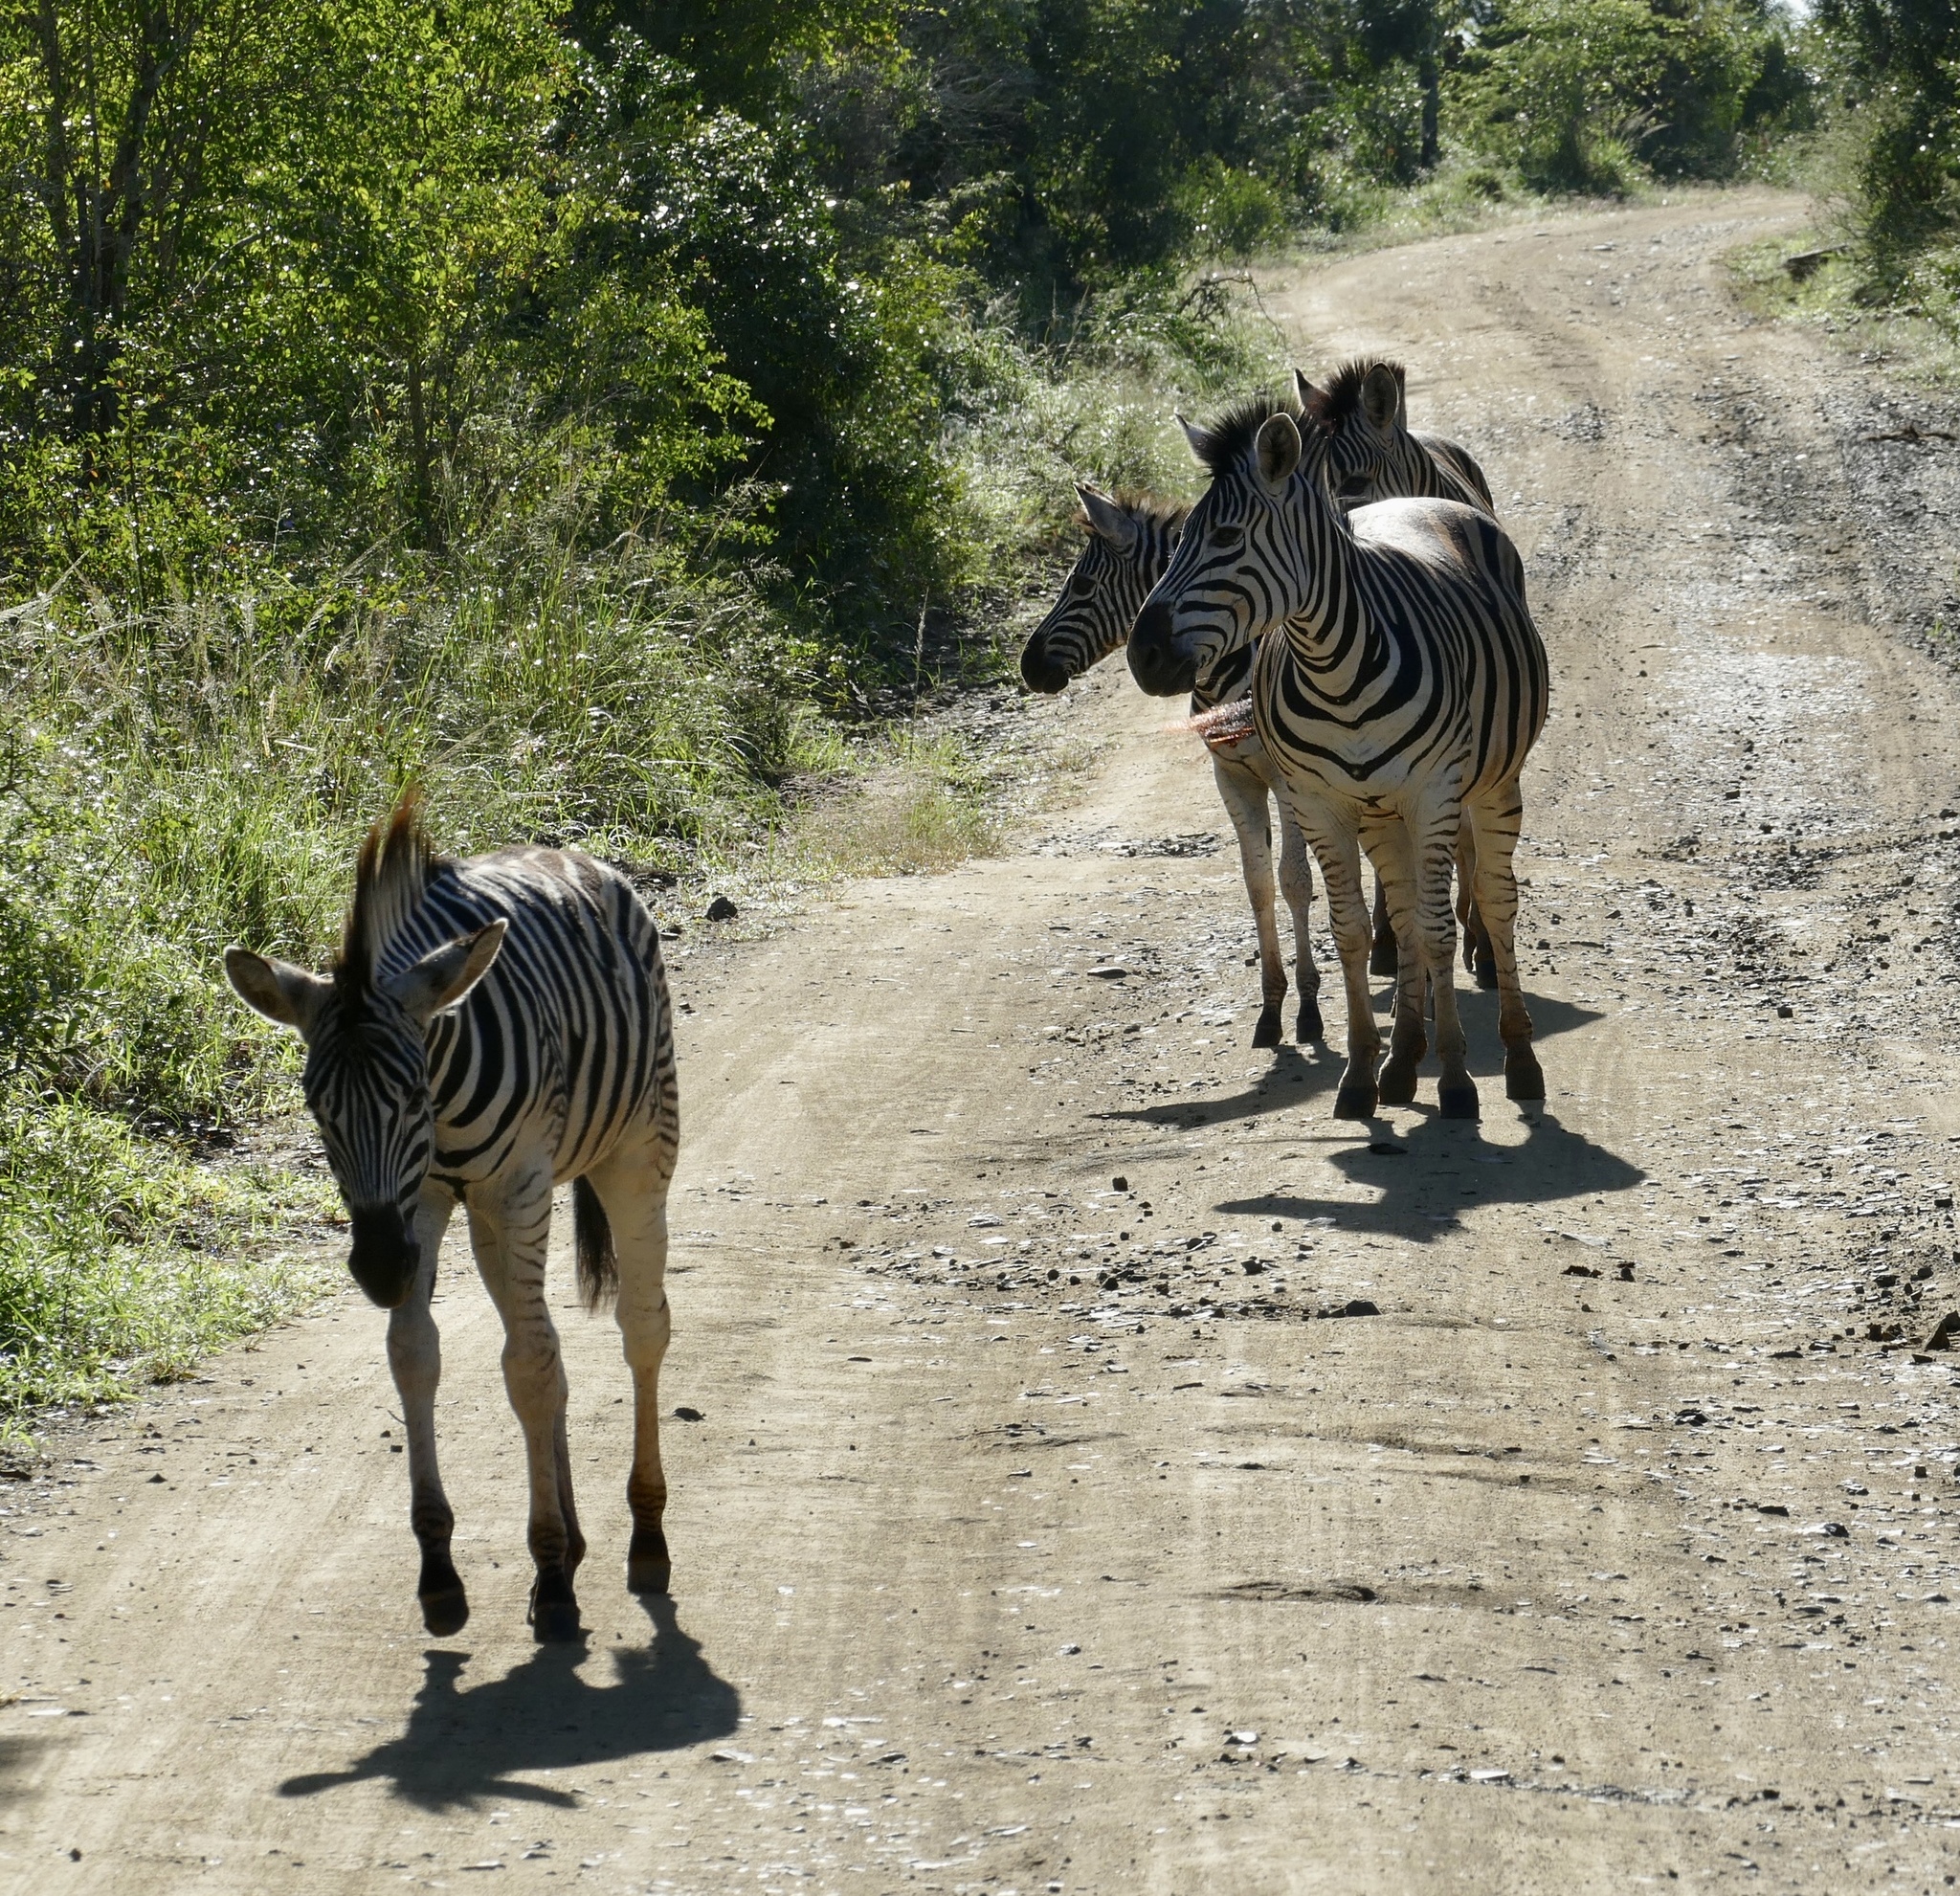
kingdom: Animalia
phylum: Chordata
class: Mammalia
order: Perissodactyla
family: Equidae
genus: Equus
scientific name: Equus quagga
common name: Plains zebra
